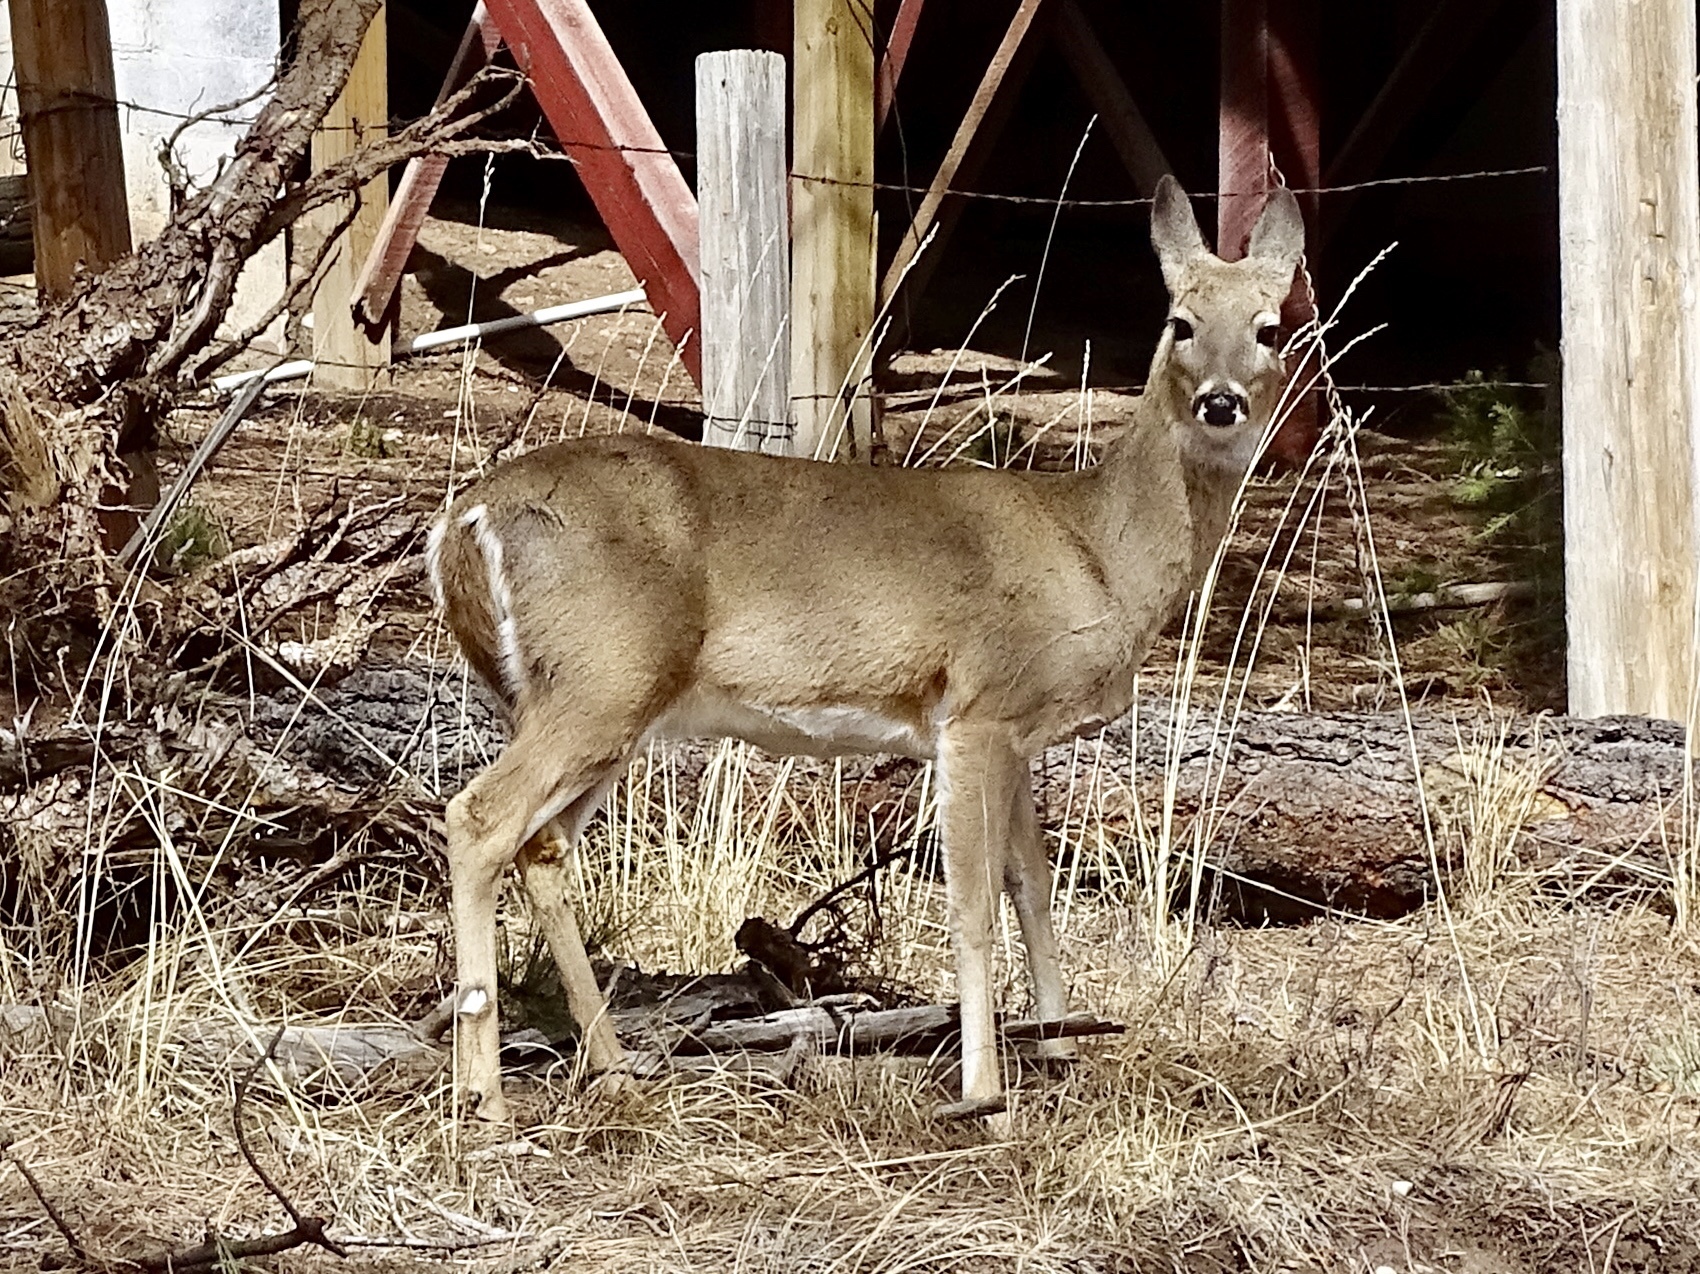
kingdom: Animalia
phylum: Chordata
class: Mammalia
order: Artiodactyla
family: Cervidae
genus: Odocoileus
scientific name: Odocoileus virginianus
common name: White-tailed deer
